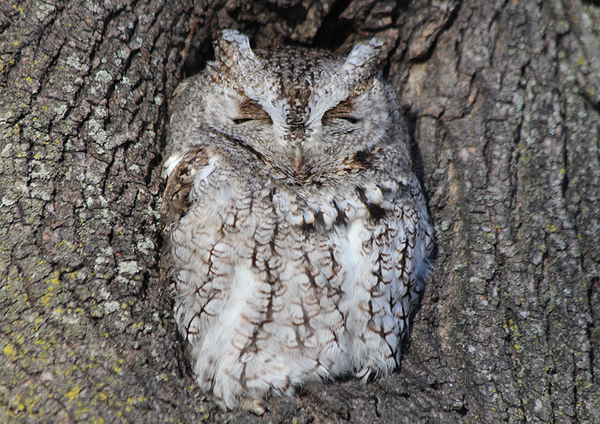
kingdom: Animalia
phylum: Chordata
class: Aves
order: Strigiformes
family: Strigidae
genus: Megascops
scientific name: Megascops asio
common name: Eastern screech-owl
